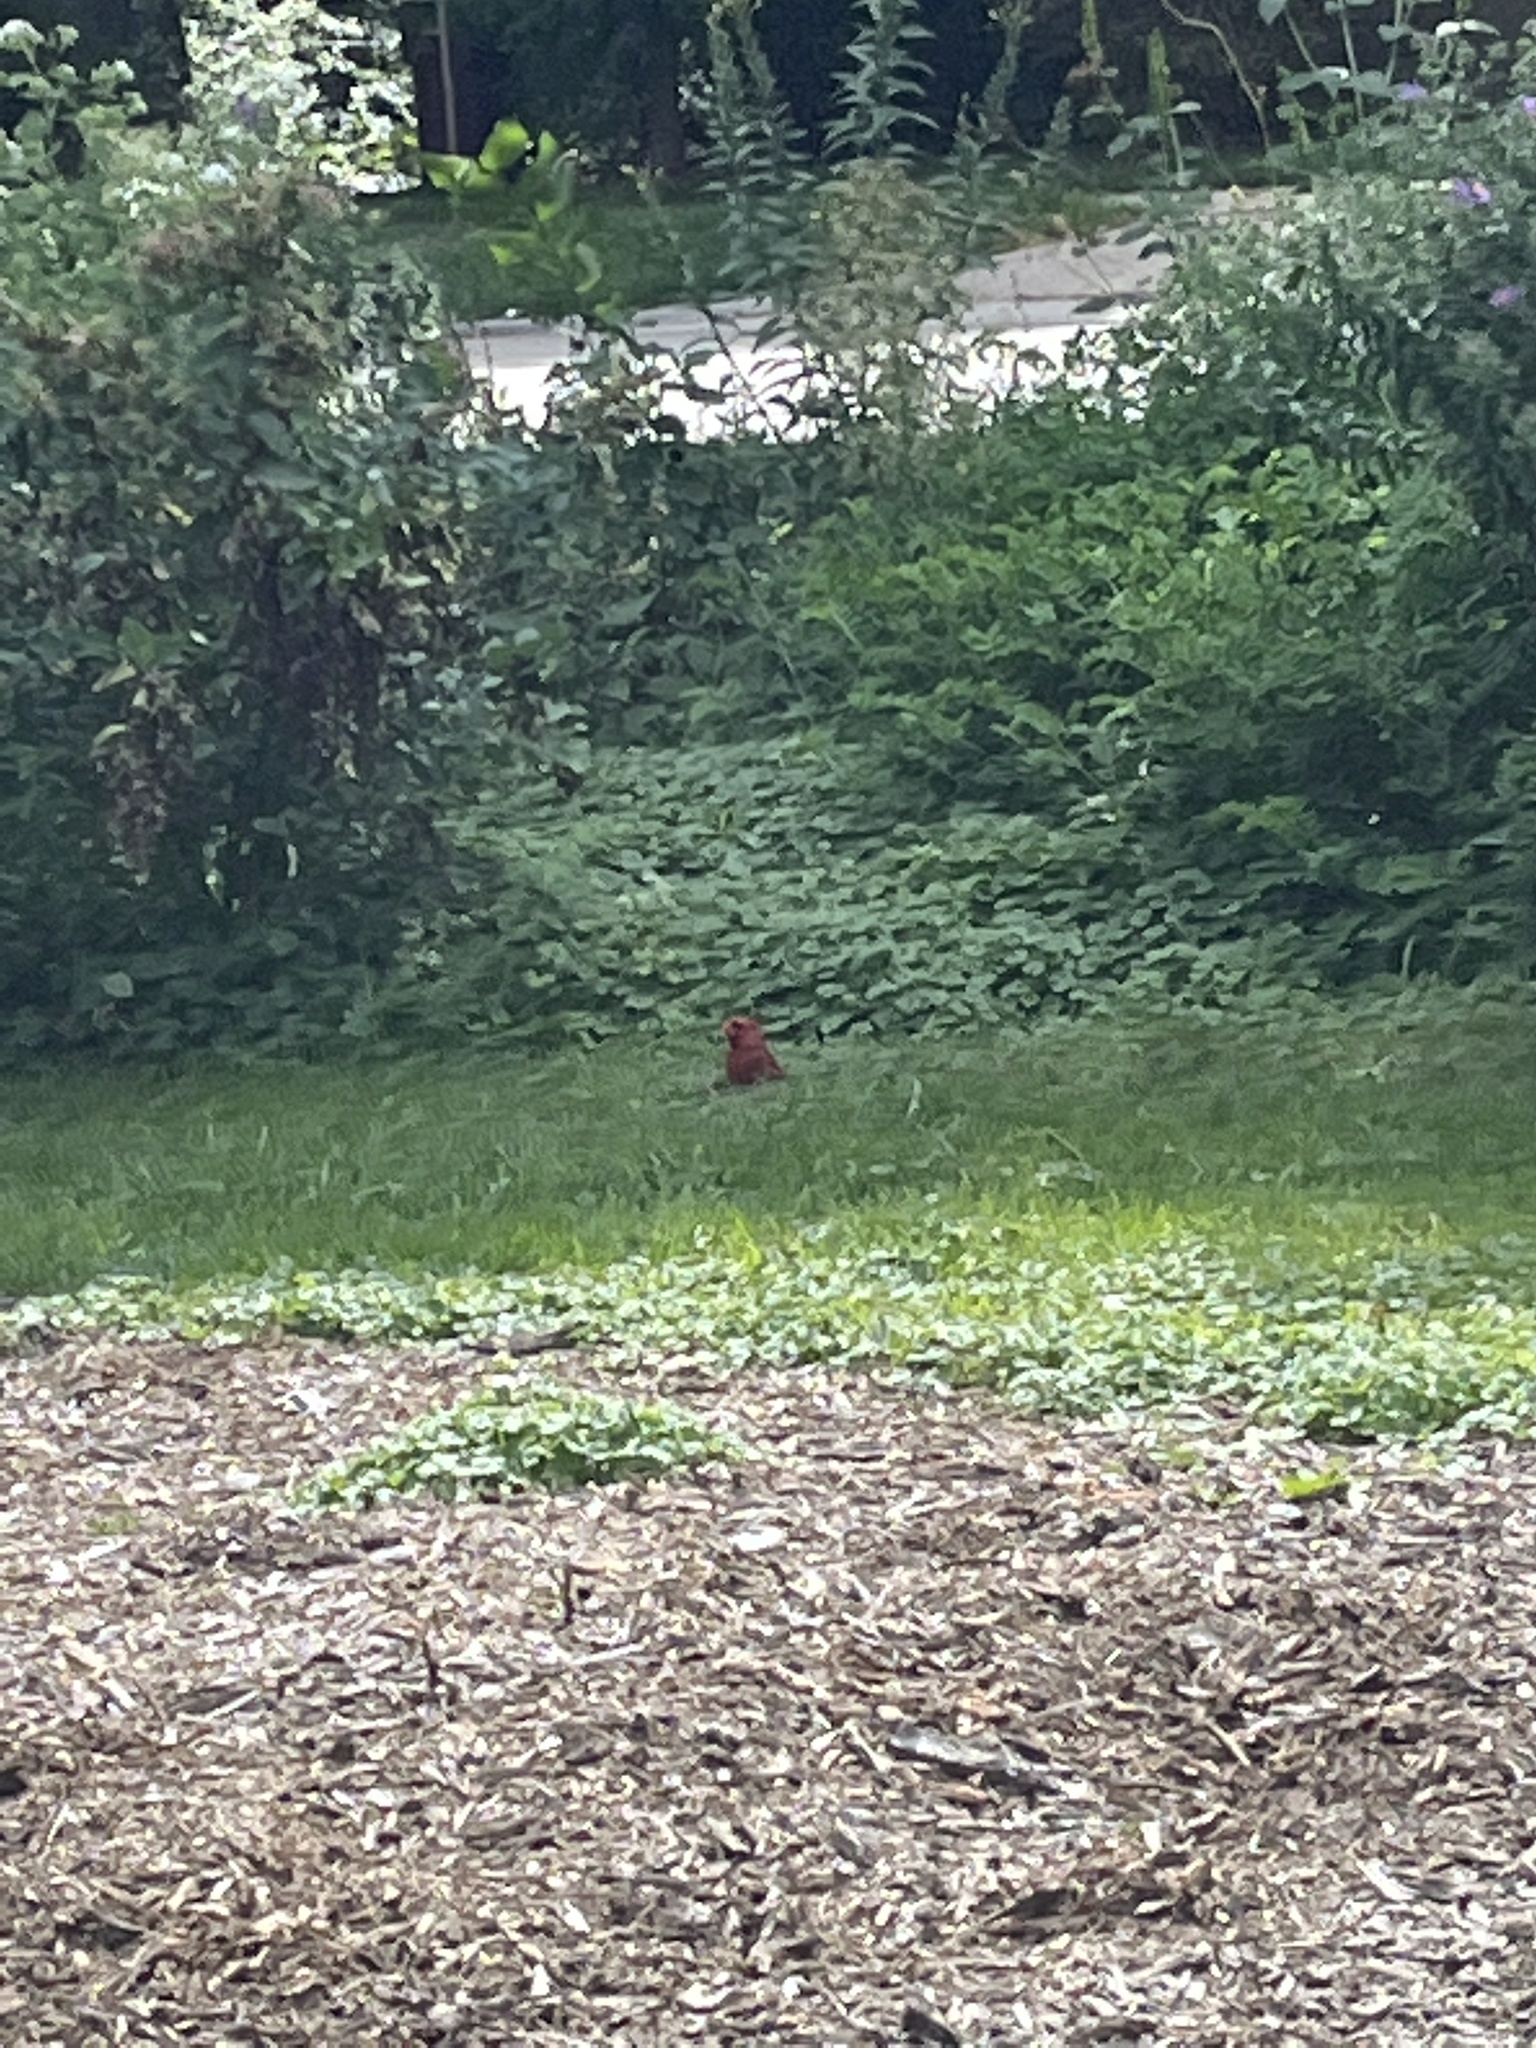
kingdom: Animalia
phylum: Chordata
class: Aves
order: Passeriformes
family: Cardinalidae
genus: Cardinalis
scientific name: Cardinalis cardinalis
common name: Northern cardinal
